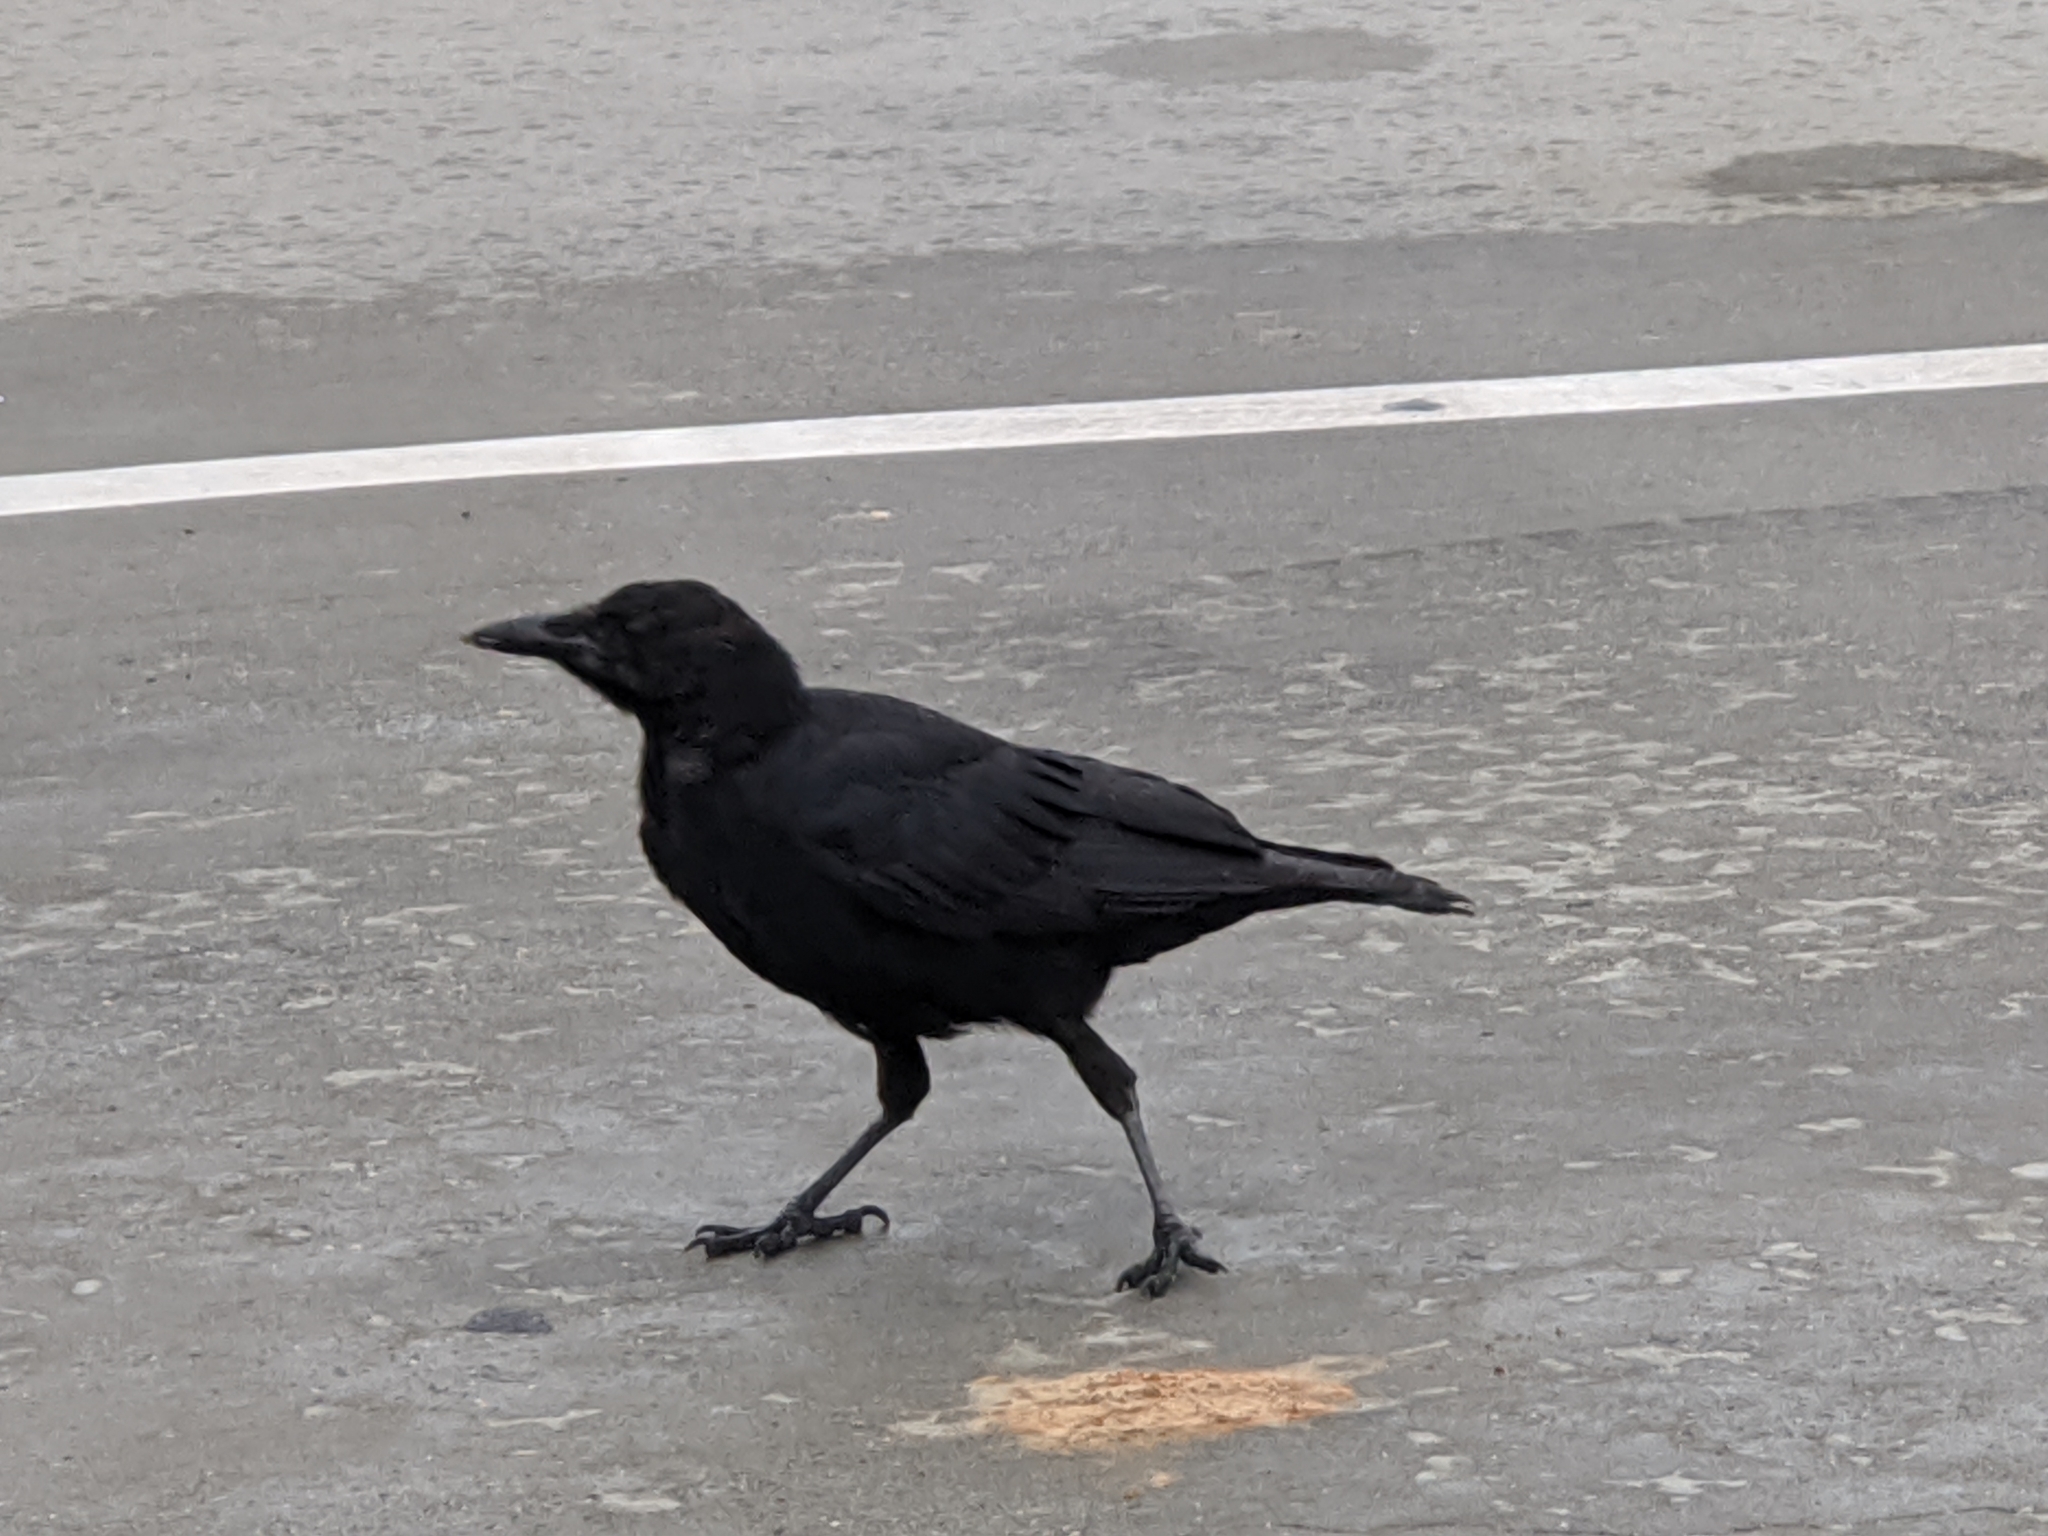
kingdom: Animalia
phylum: Chordata
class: Aves
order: Passeriformes
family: Corvidae
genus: Corvus
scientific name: Corvus brachyrhynchos
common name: American crow
